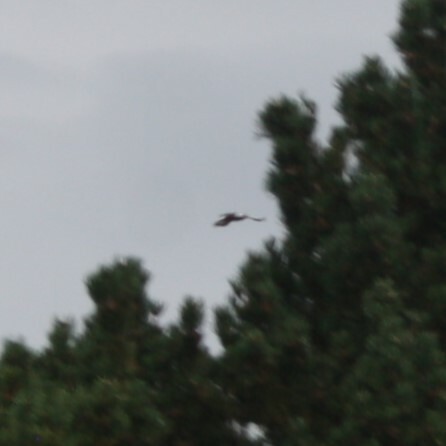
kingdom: Animalia
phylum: Chordata
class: Aves
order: Piciformes
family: Picidae
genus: Dendrocopos
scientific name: Dendrocopos major
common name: Great spotted woodpecker
